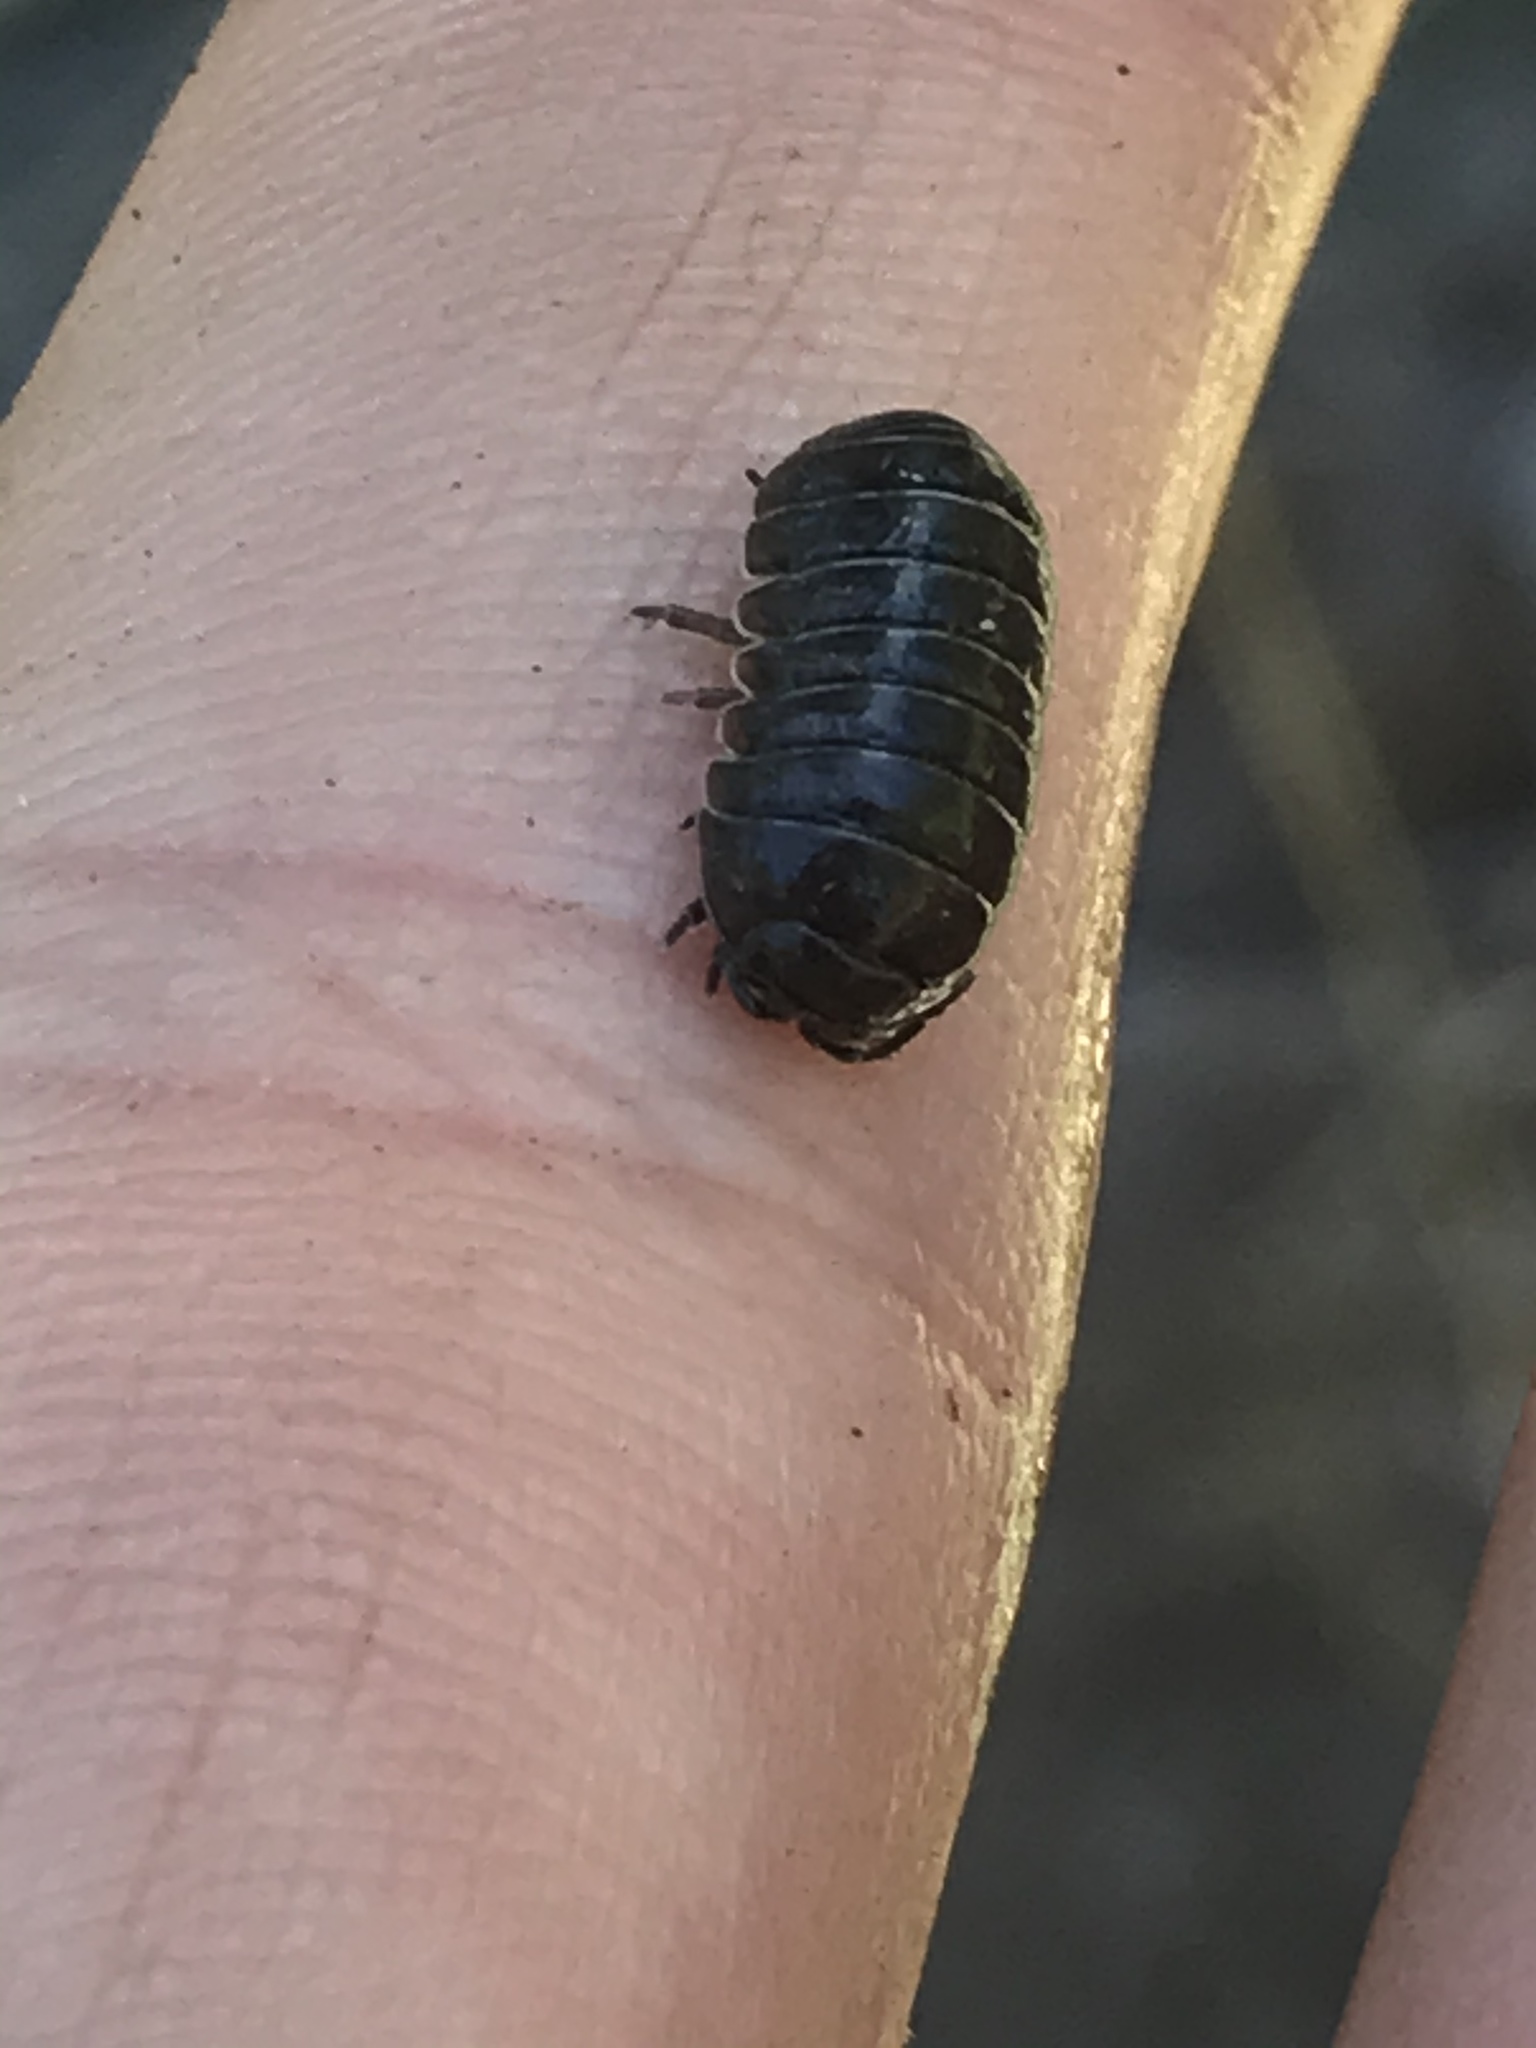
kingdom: Animalia
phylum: Arthropoda
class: Malacostraca
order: Isopoda
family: Armadillidiidae
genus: Armadillidium
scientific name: Armadillidium vulgare
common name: Common pill woodlouse
